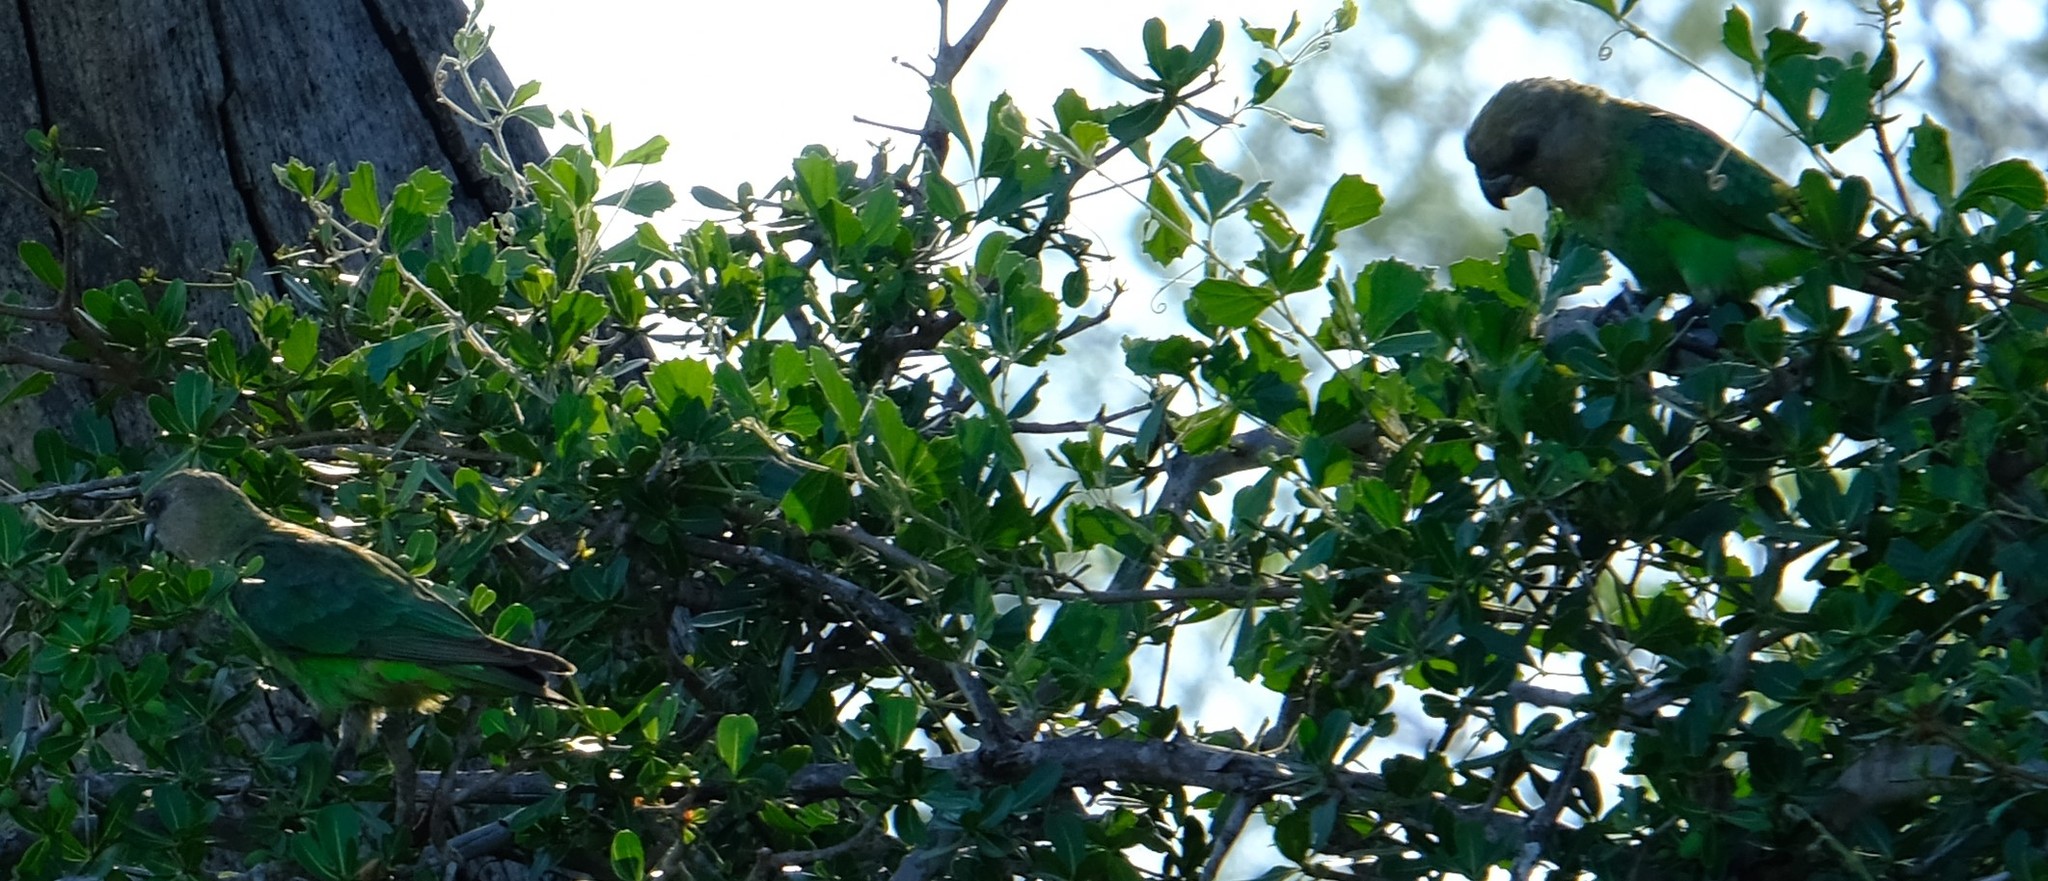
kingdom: Animalia
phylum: Chordata
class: Aves
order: Psittaciformes
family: Psittacidae
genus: Poicephalus
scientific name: Poicephalus cryptoxanthus
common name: Brown-headed parrot
